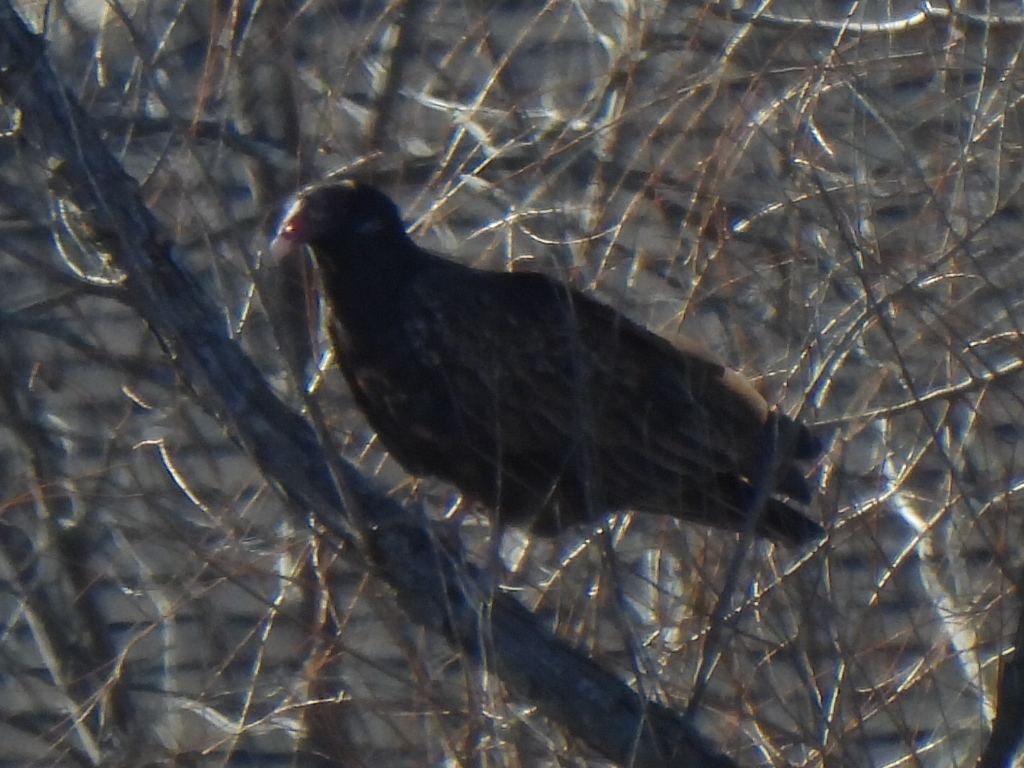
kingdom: Animalia
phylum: Chordata
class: Aves
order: Accipitriformes
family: Cathartidae
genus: Cathartes
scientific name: Cathartes aura
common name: Turkey vulture
